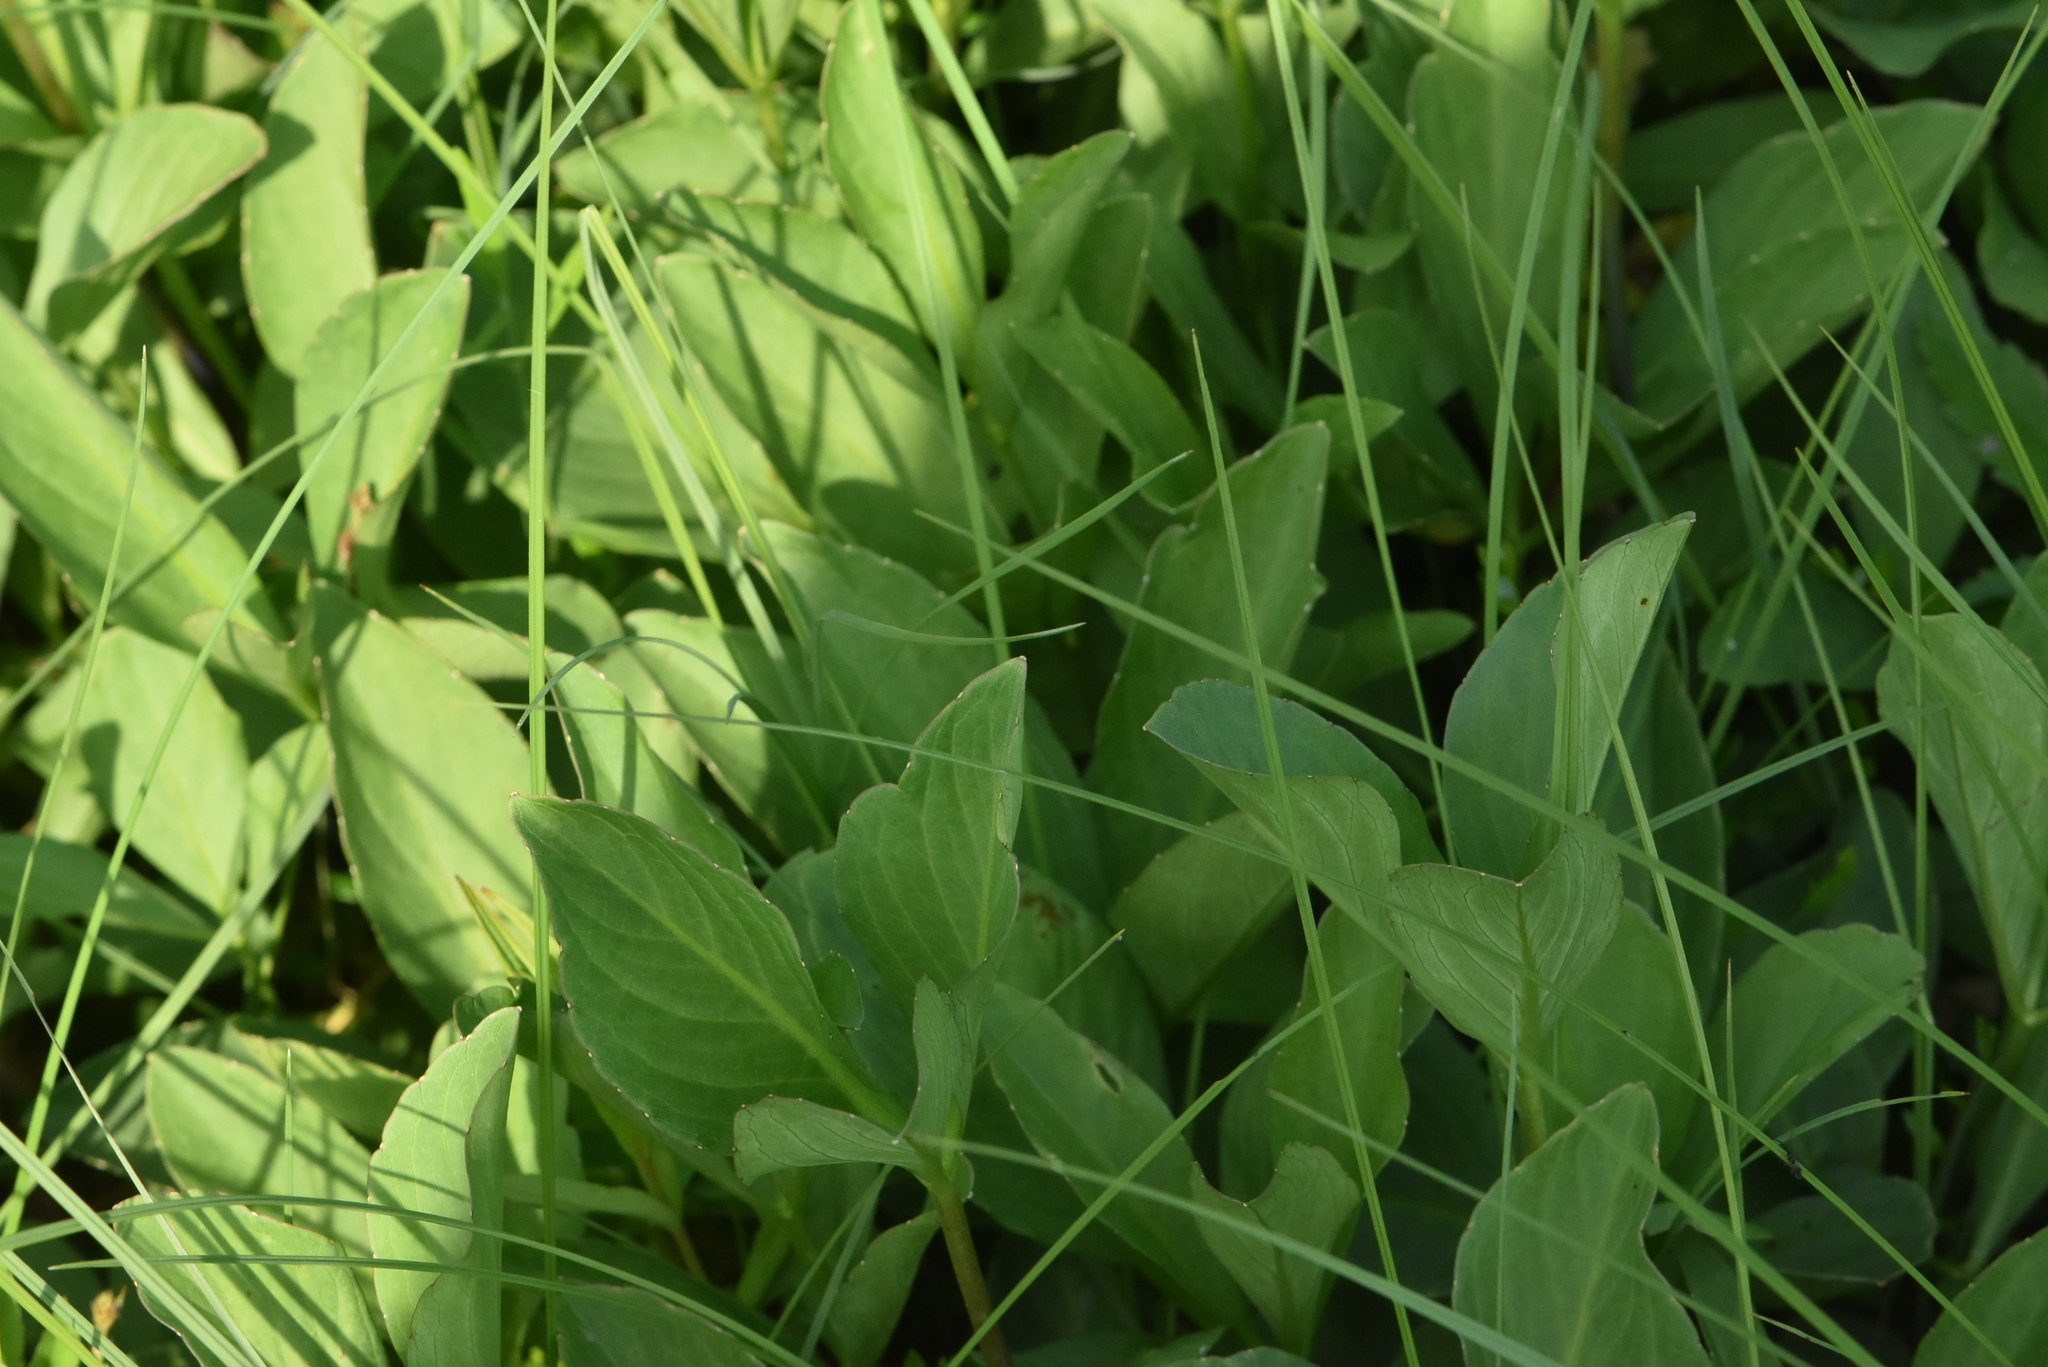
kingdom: Plantae
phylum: Tracheophyta
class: Magnoliopsida
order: Asterales
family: Menyanthaceae
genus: Menyanthes
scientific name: Menyanthes trifoliata
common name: Bogbean
